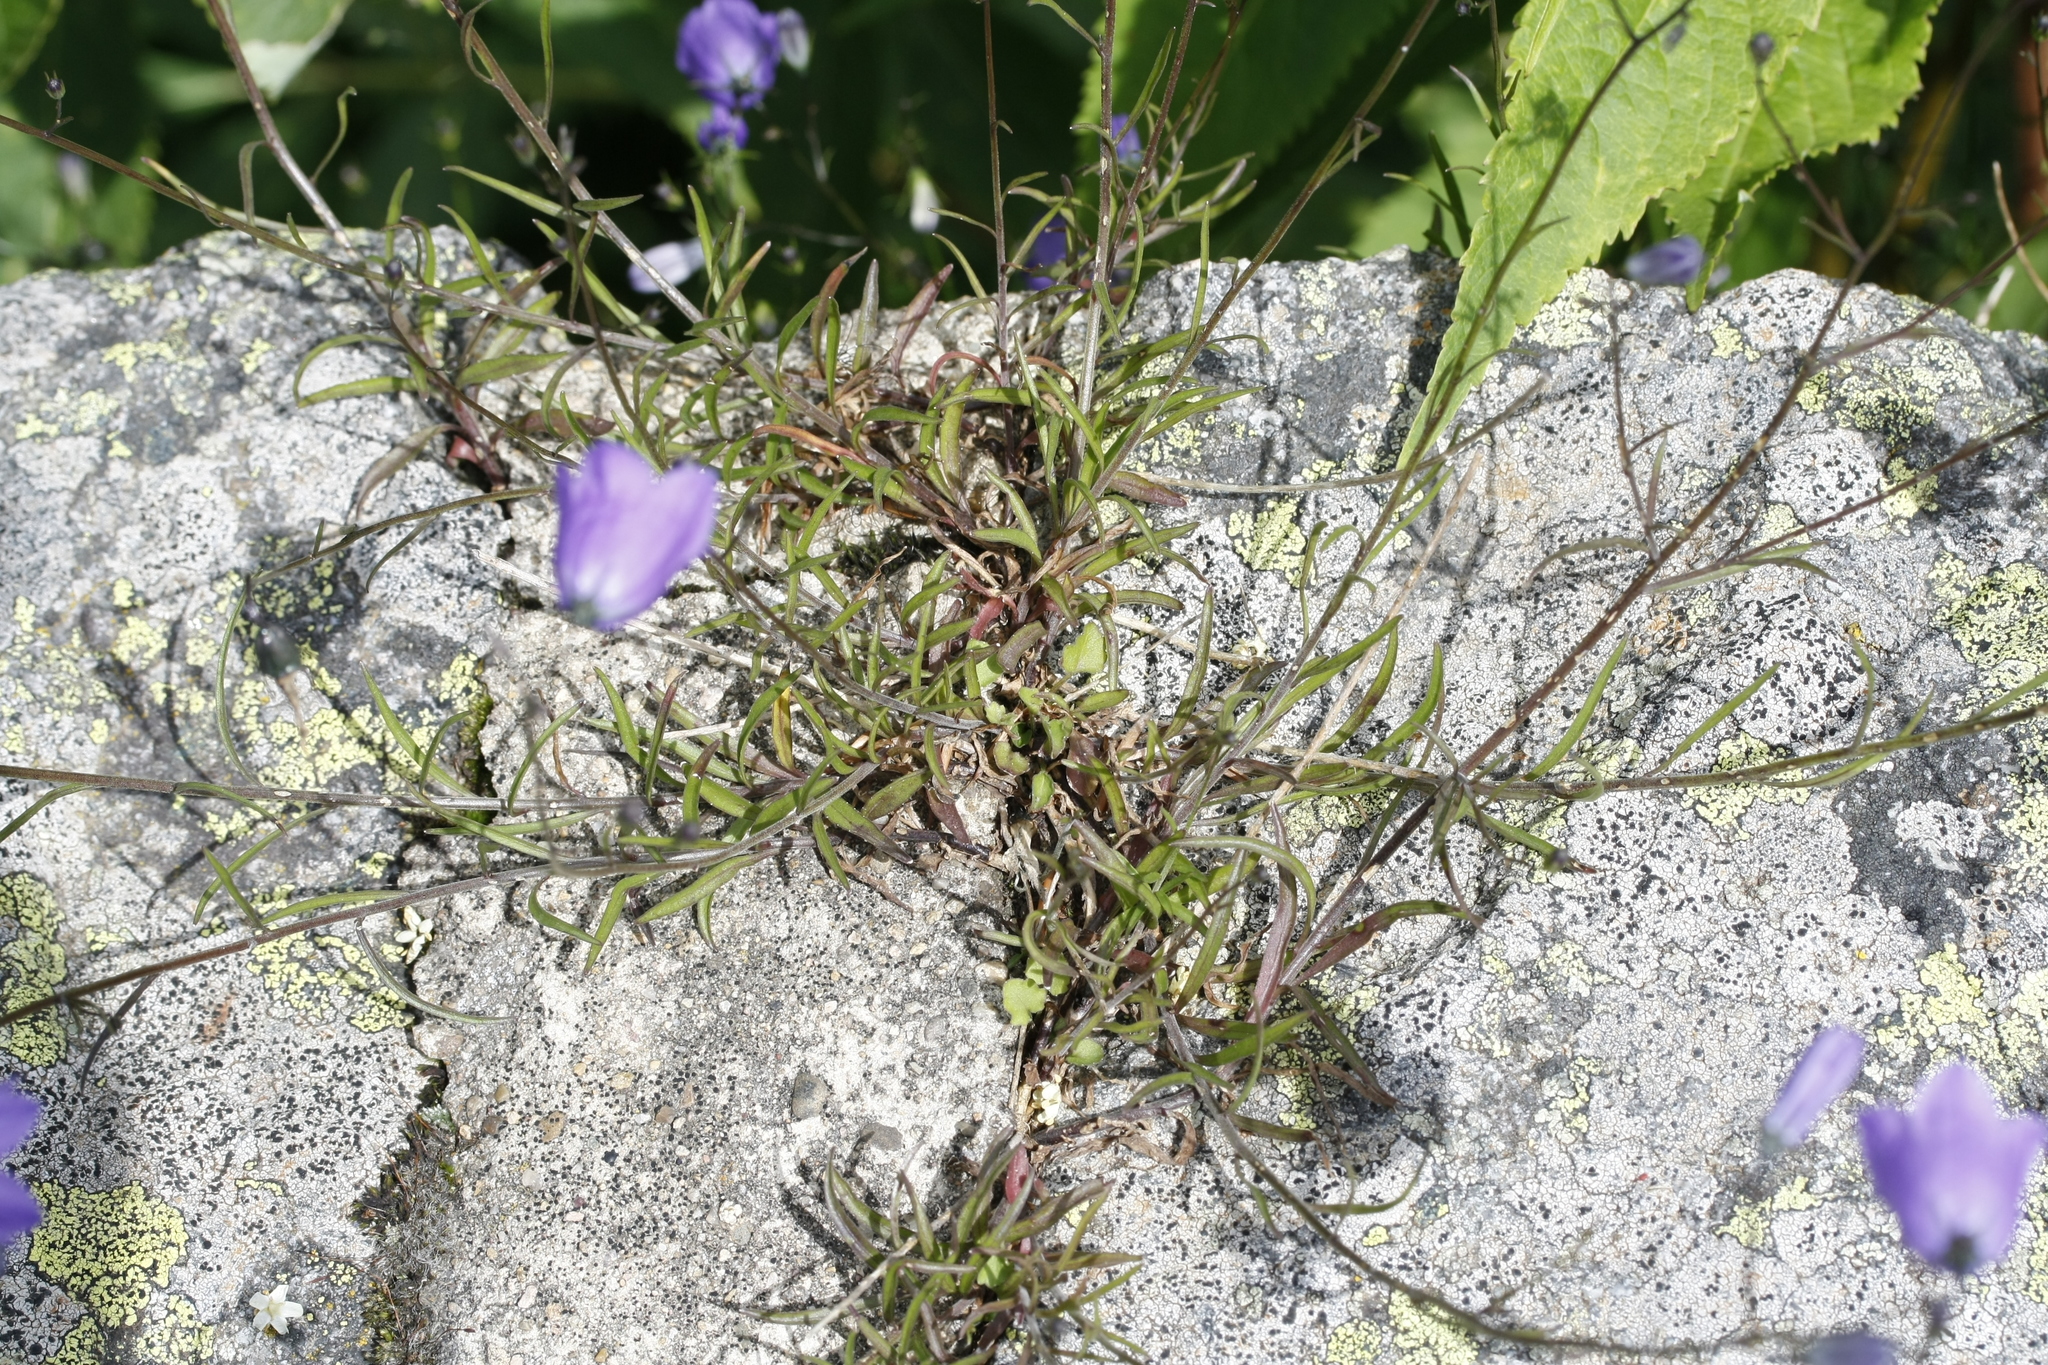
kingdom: Plantae
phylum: Tracheophyta
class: Magnoliopsida
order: Asterales
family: Campanulaceae
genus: Campanula
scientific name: Campanula rotundifolia
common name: Harebell
